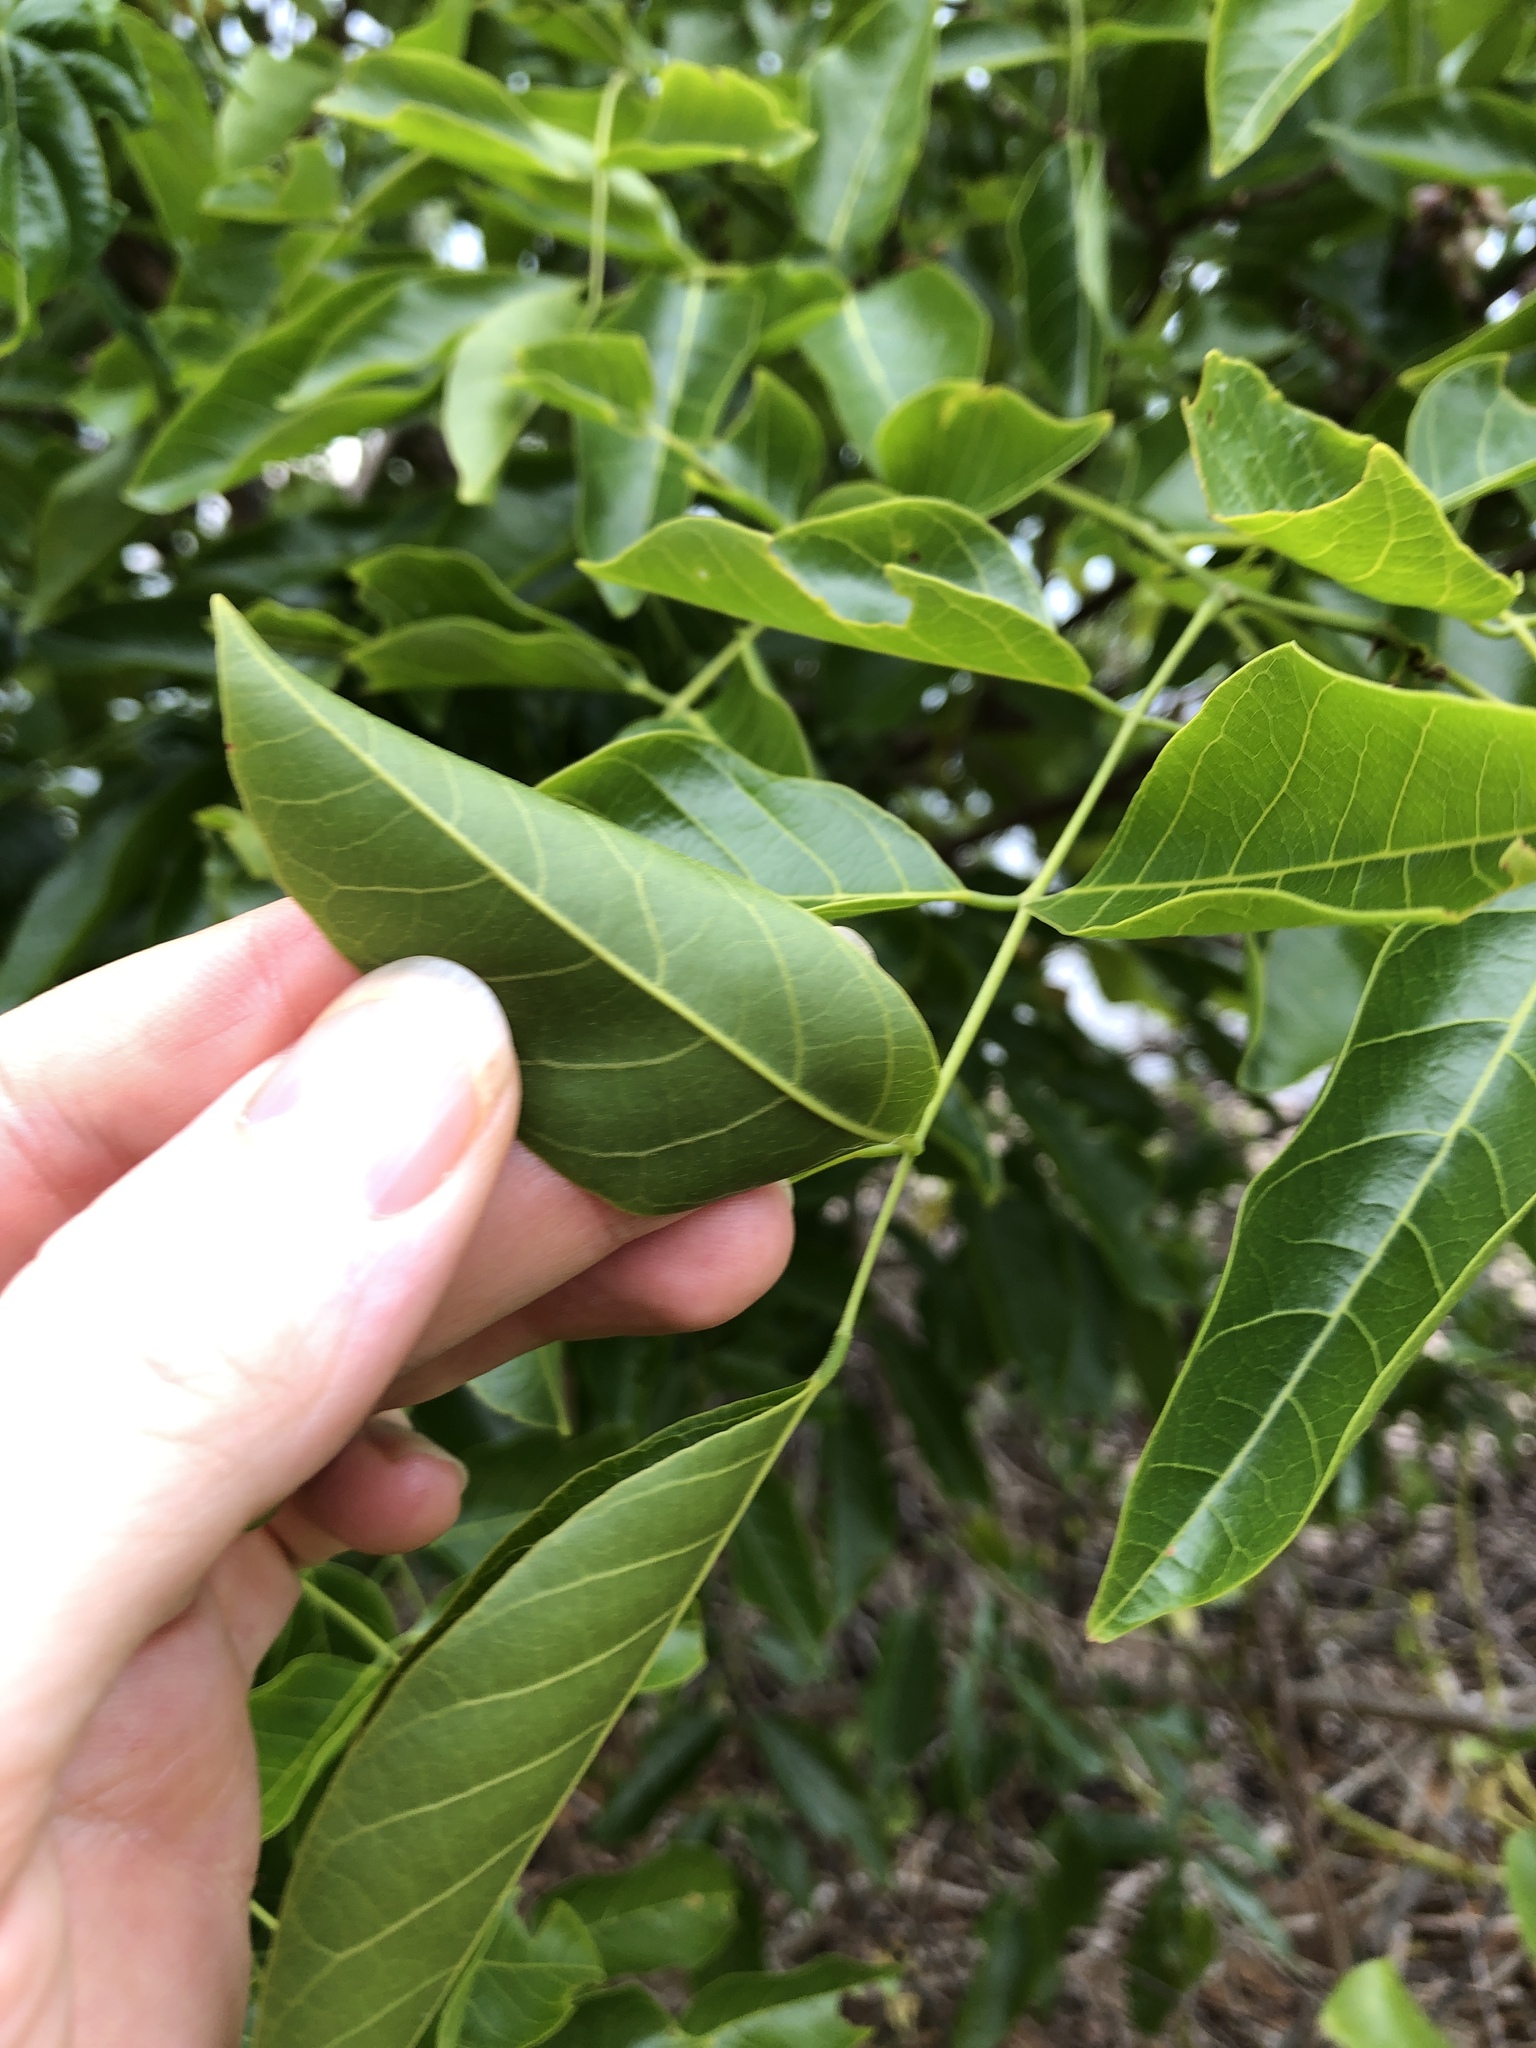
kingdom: Plantae
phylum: Tracheophyta
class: Magnoliopsida
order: Fabales
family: Fabaceae
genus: Pongamia
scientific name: Pongamia pinnata
